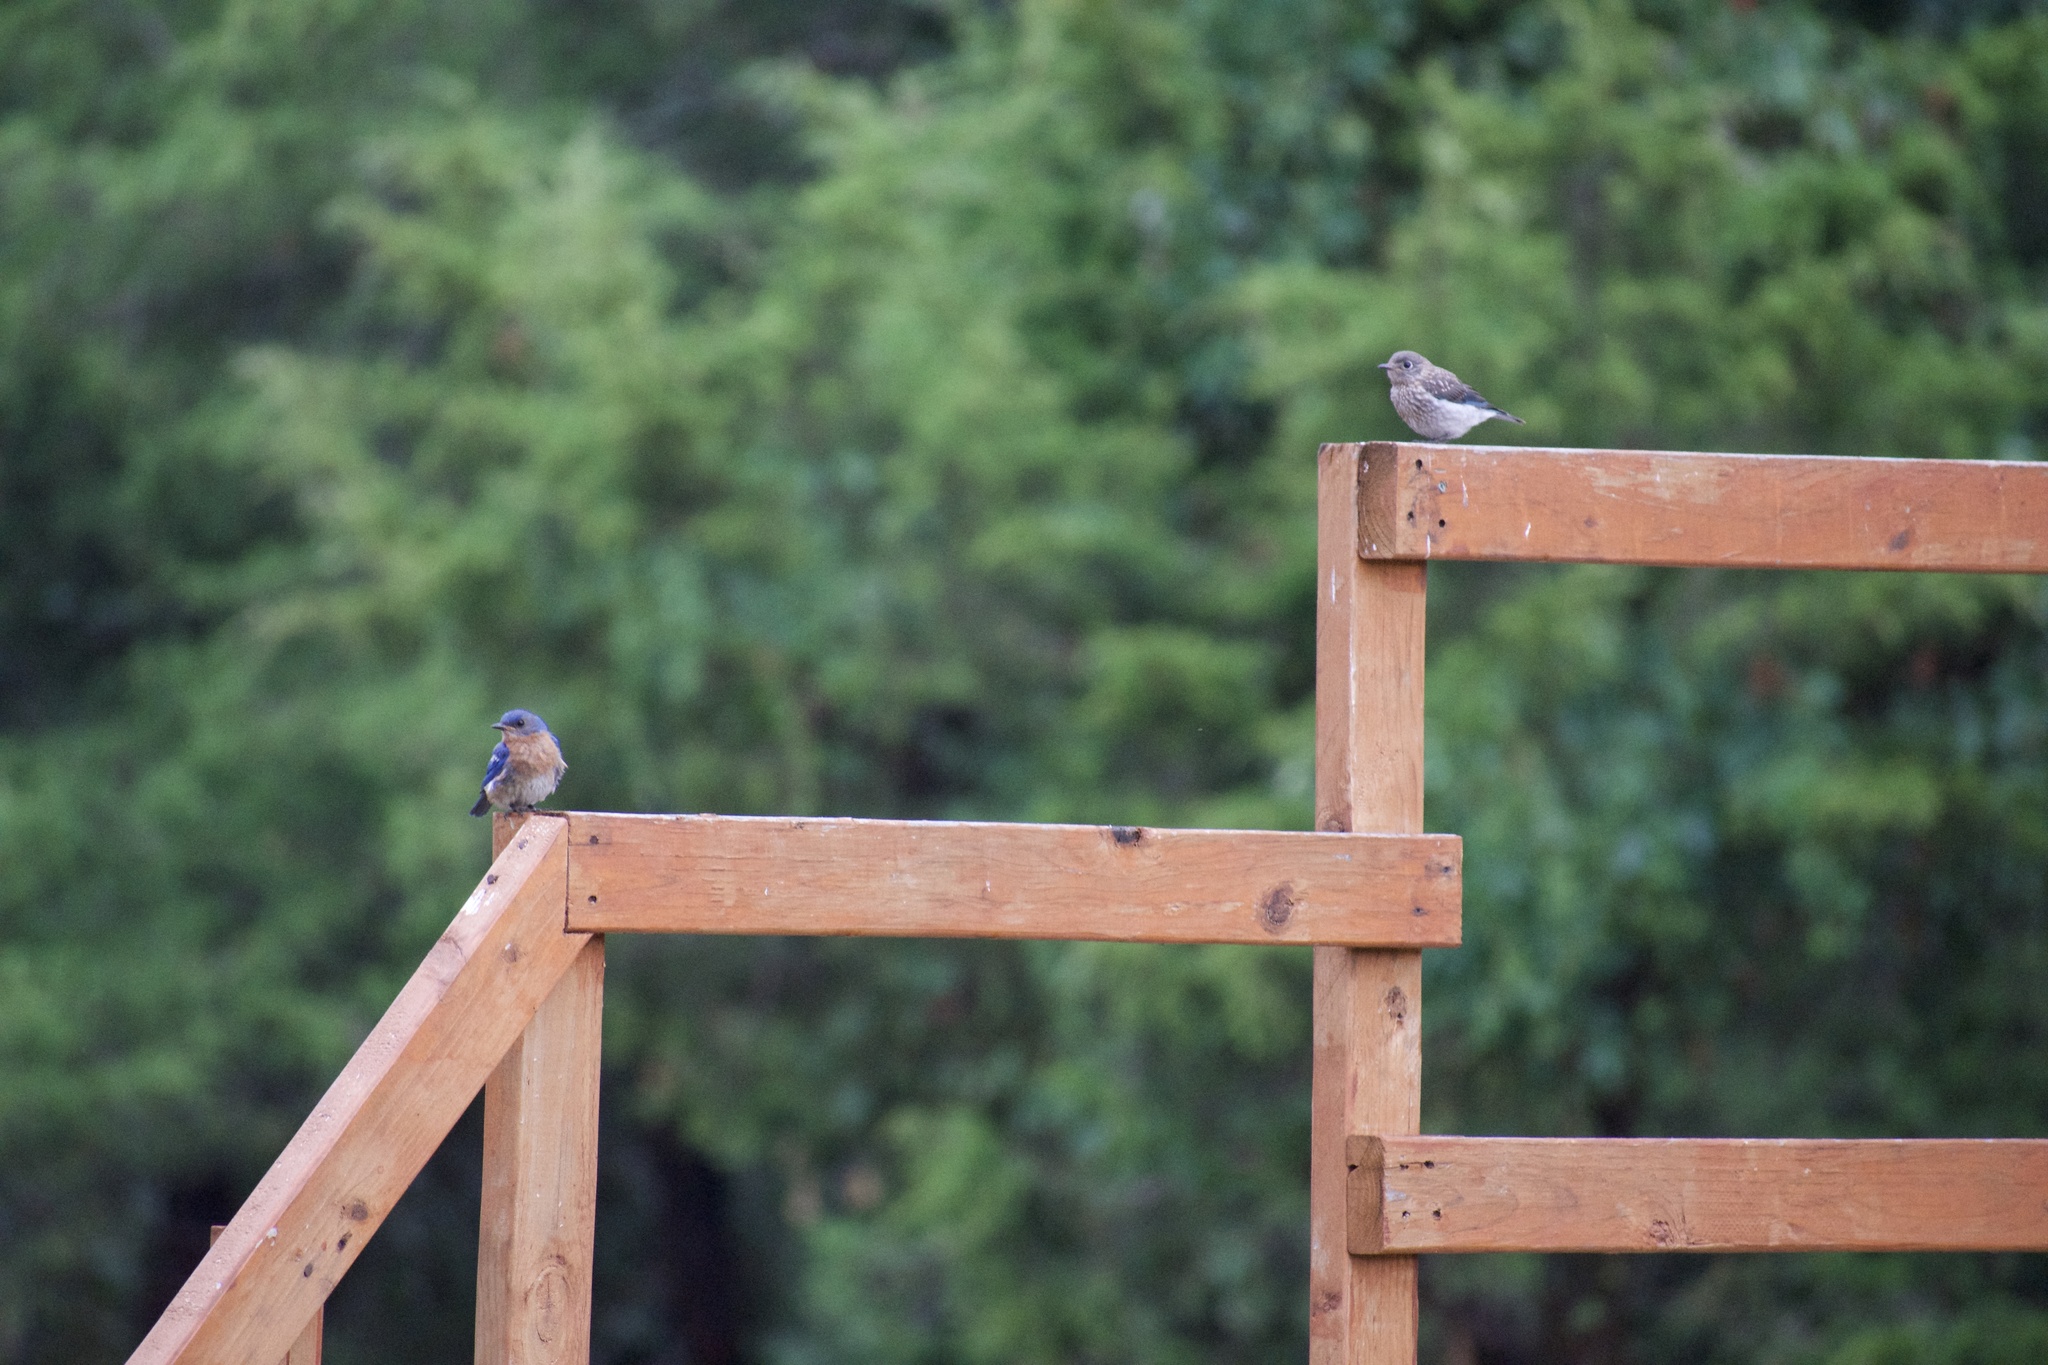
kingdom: Animalia
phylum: Chordata
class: Aves
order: Passeriformes
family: Turdidae
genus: Sialia
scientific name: Sialia sialis
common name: Eastern bluebird
